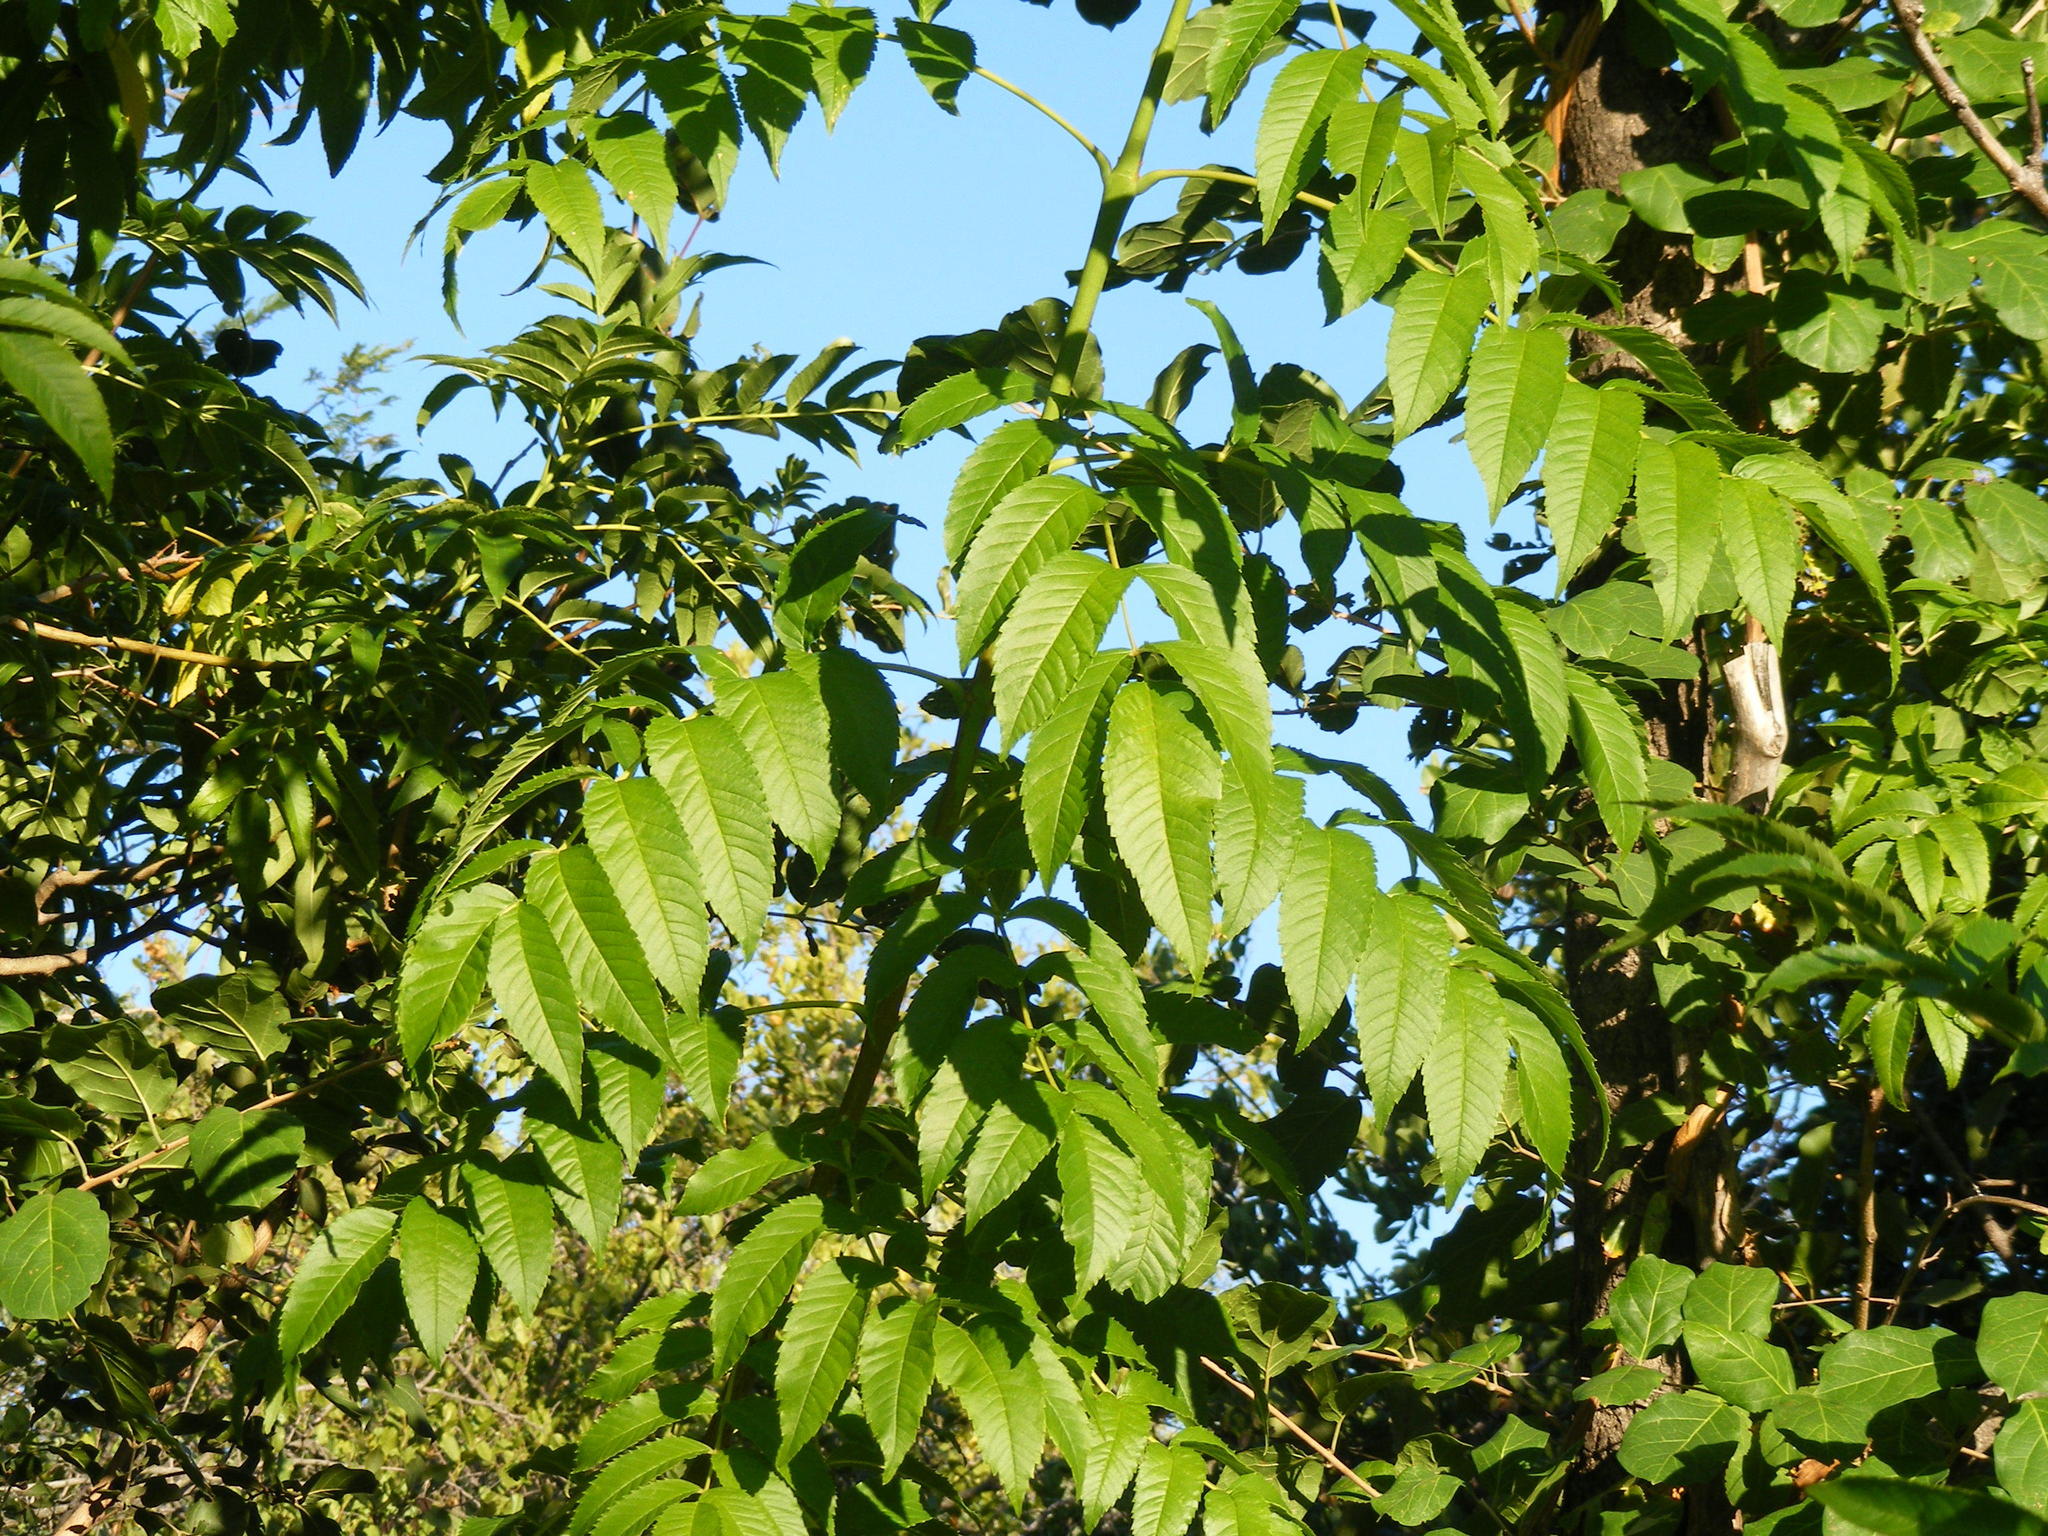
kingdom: Plantae
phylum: Tracheophyta
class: Magnoliopsida
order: Lamiales
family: Bignoniaceae
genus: Tecoma
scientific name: Tecoma stans
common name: Yellow trumpetbush
